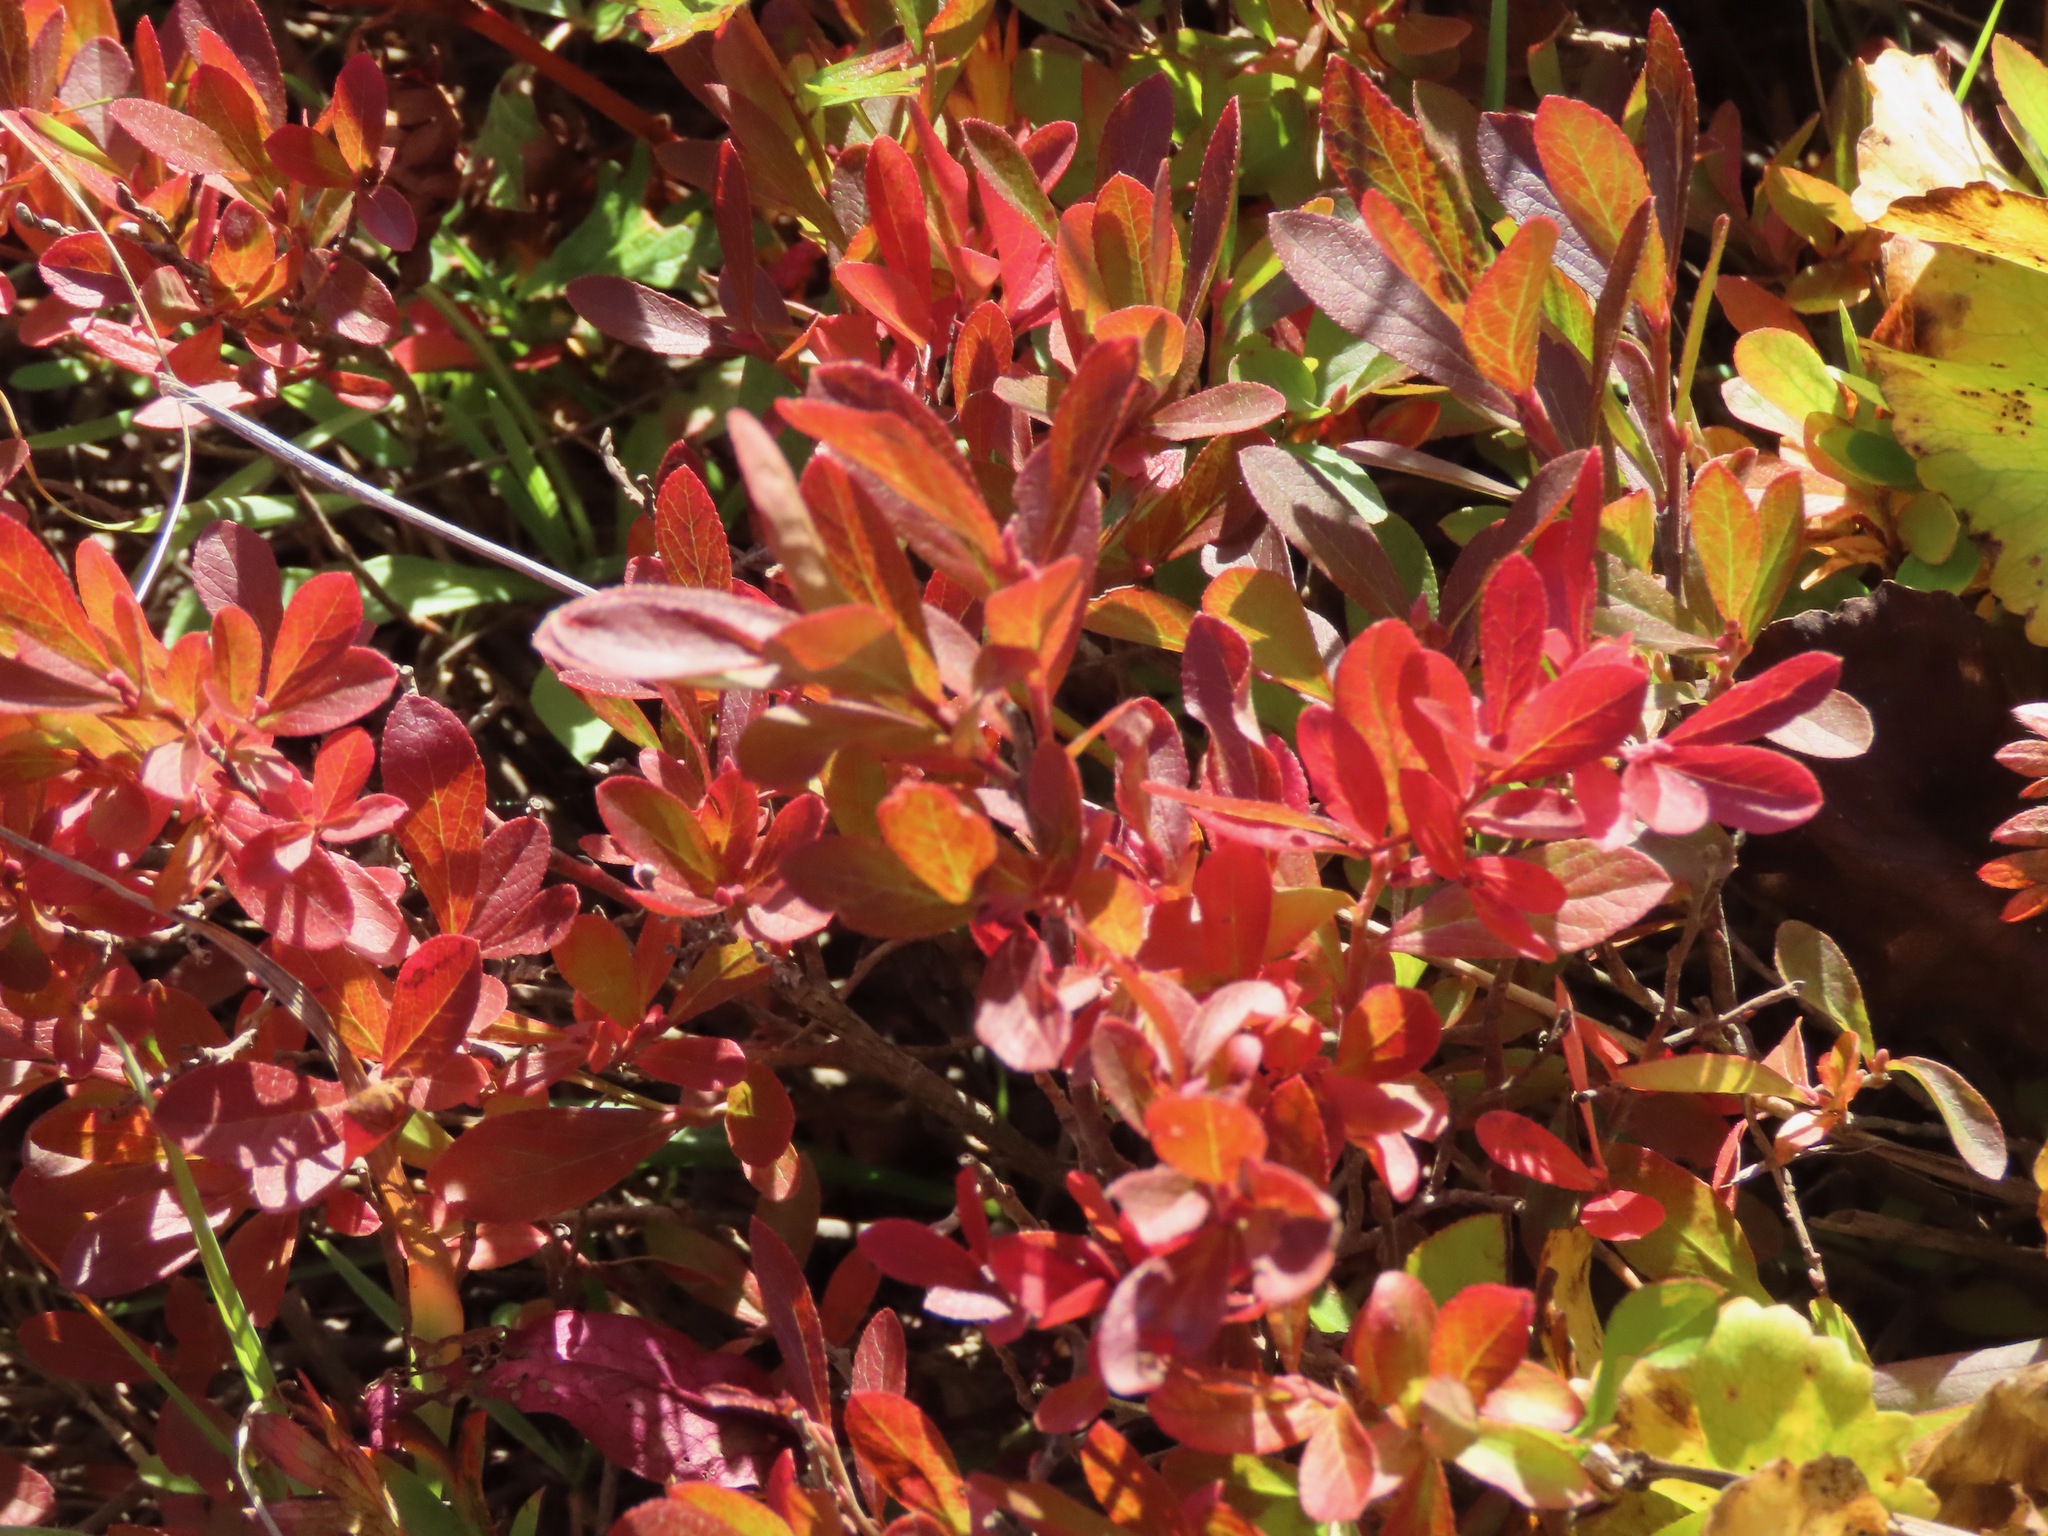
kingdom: Plantae
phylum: Tracheophyta
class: Magnoliopsida
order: Ericales
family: Ericaceae
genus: Vaccinium
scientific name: Vaccinium cespitosum
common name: Dwarf bilberry
